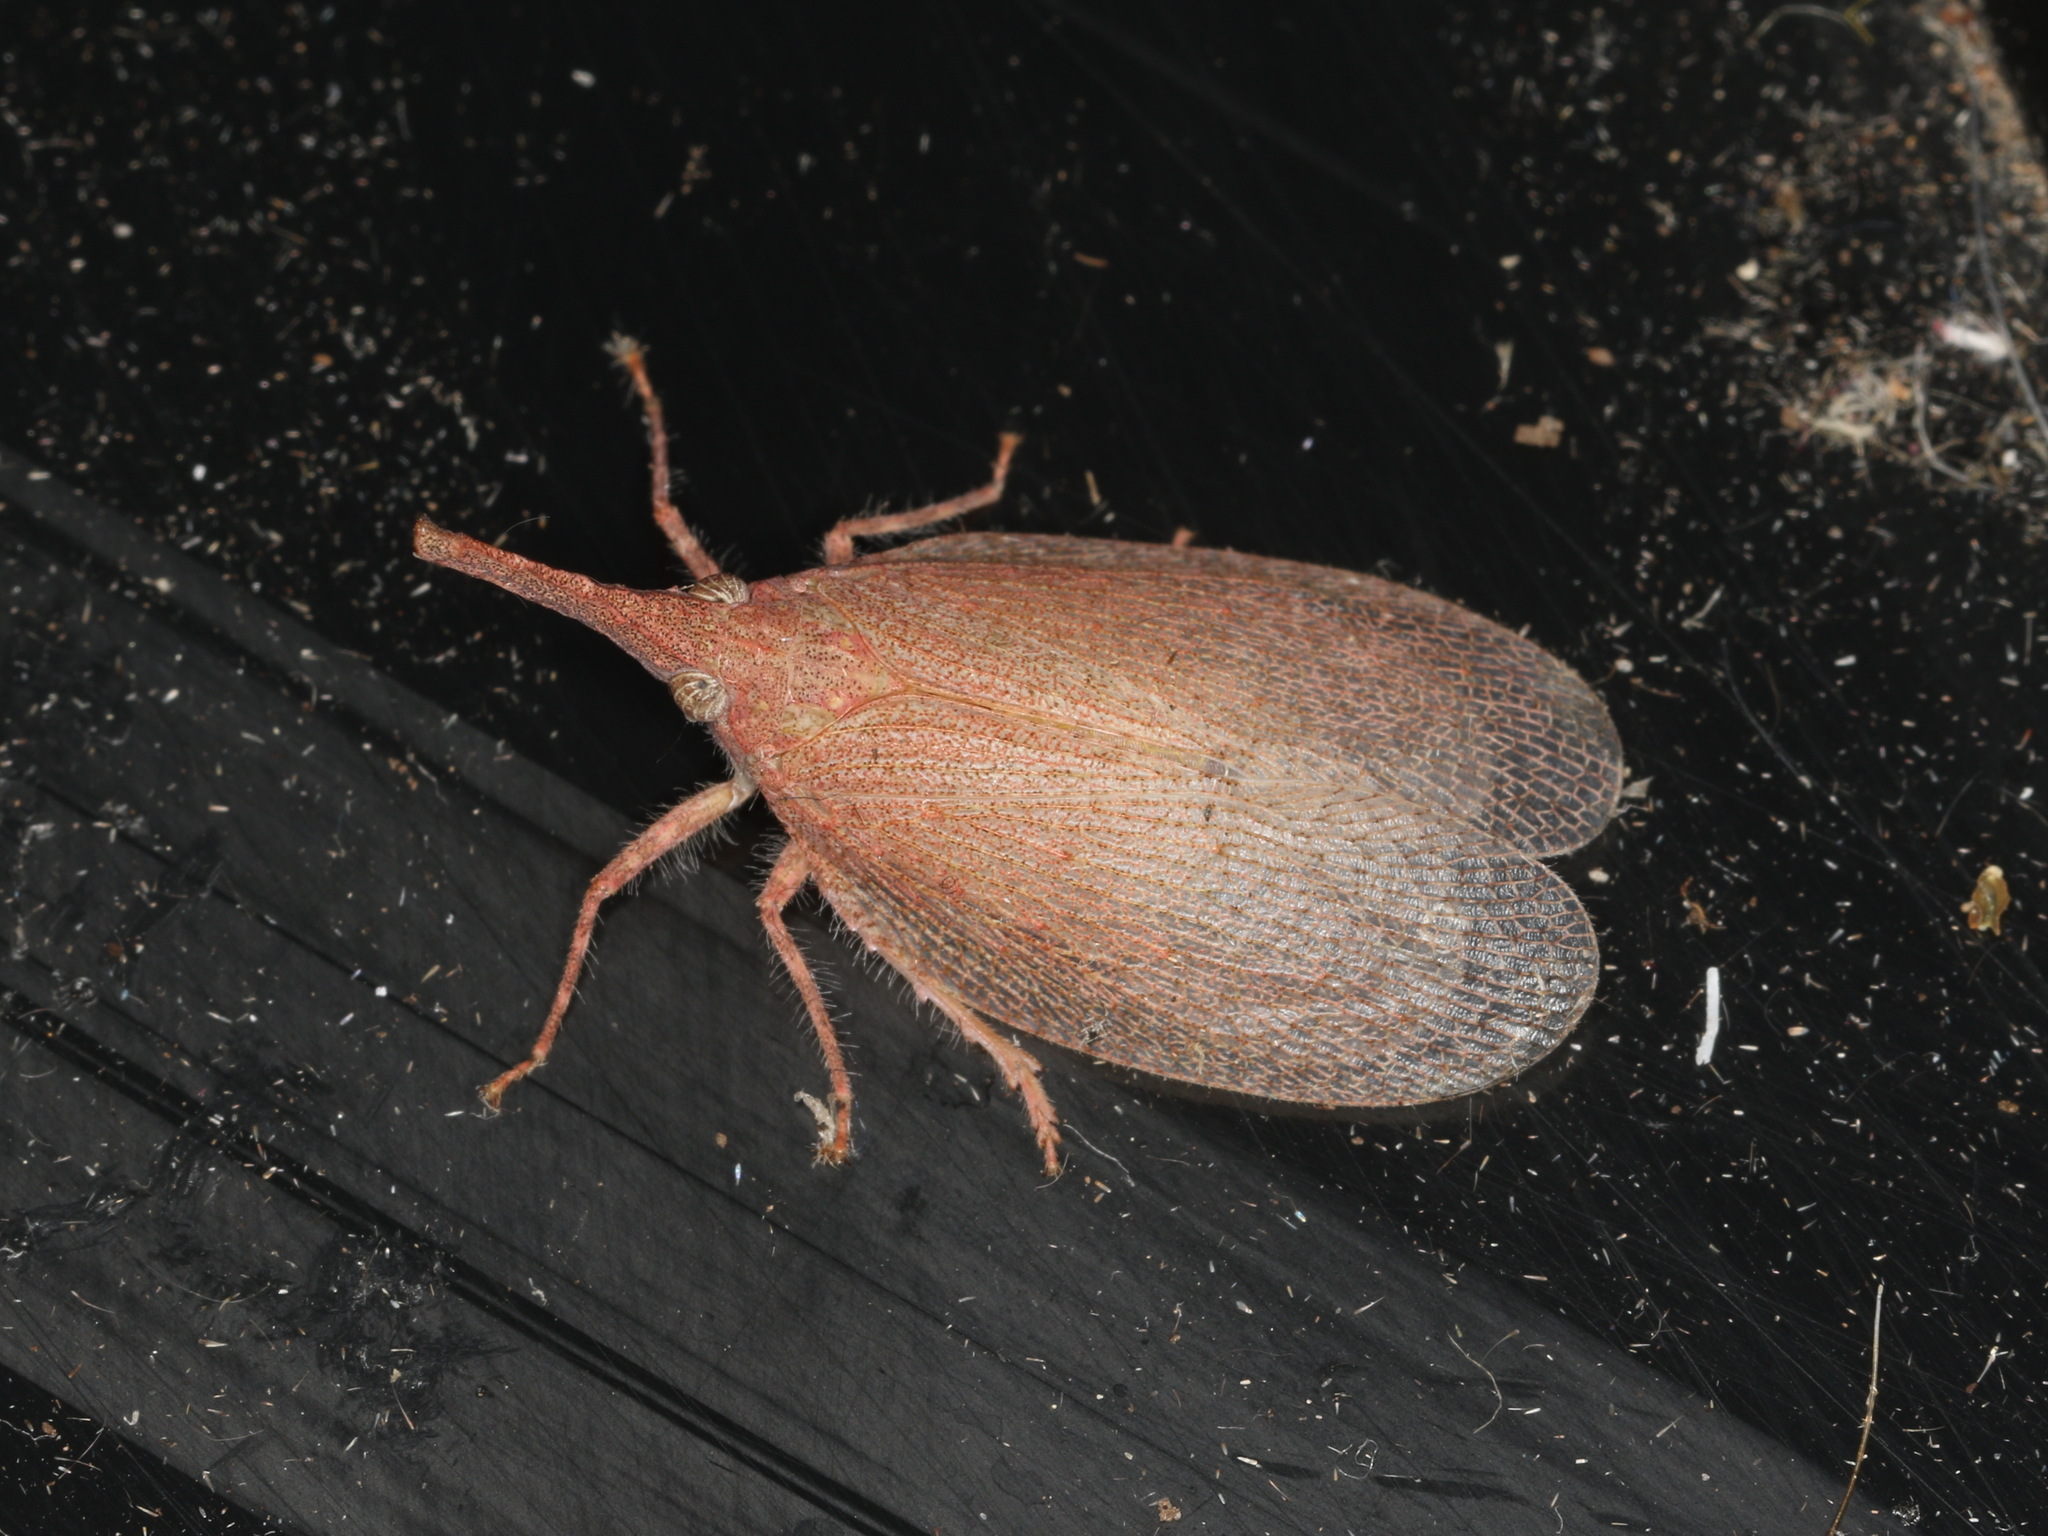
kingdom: Animalia
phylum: Arthropoda
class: Insecta
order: Hemiptera
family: Fulgoridae
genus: Rentinus
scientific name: Rentinus dilatatus
